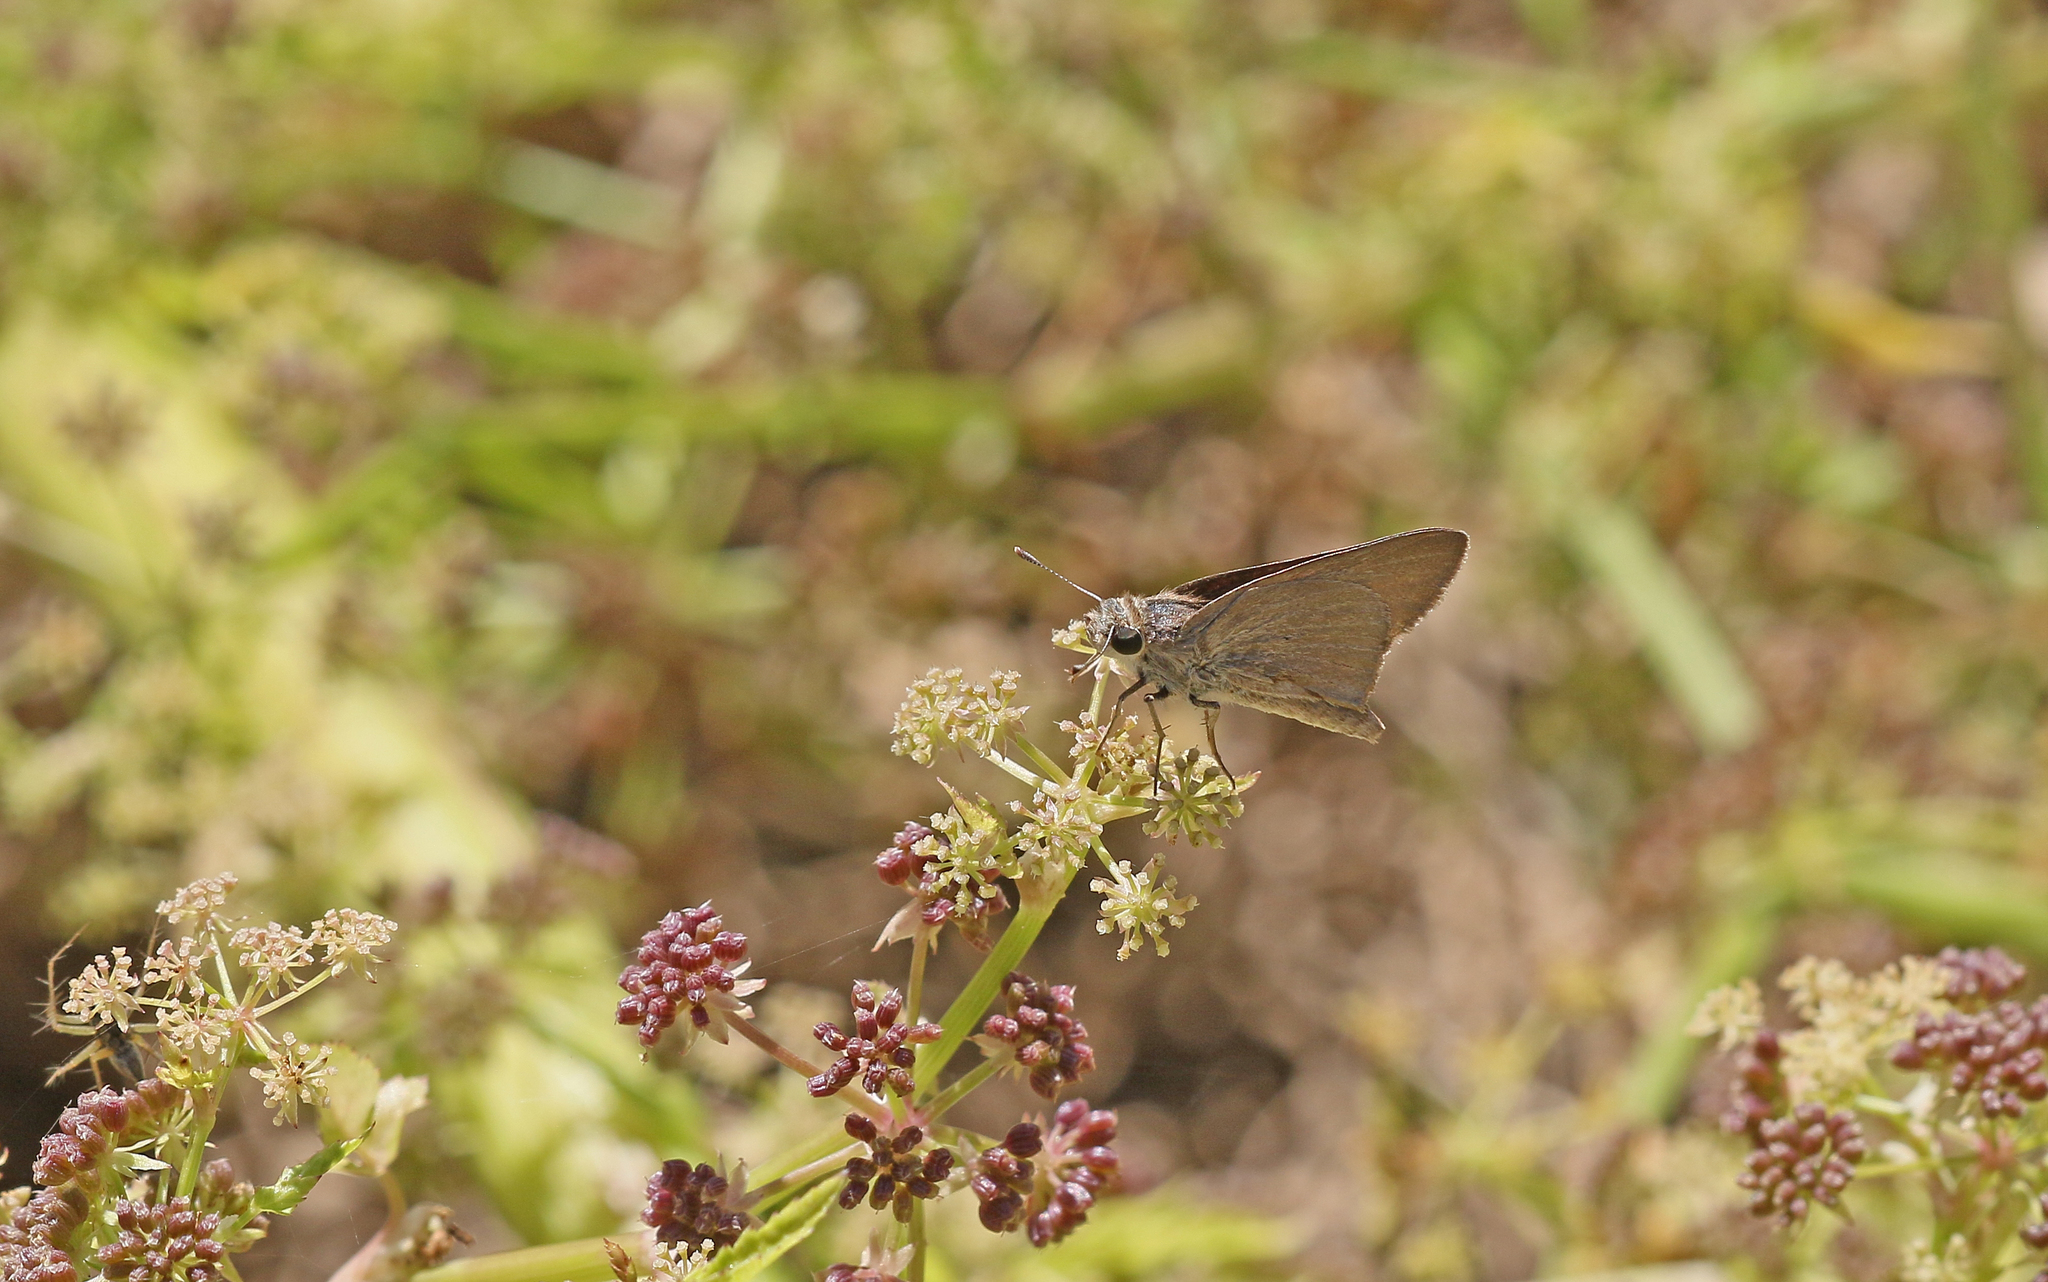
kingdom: Animalia
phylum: Arthropoda
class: Insecta
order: Lepidoptera
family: Hesperiidae
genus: Gegenes
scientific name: Gegenes nostrodamus
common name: Mediterranean skipper
